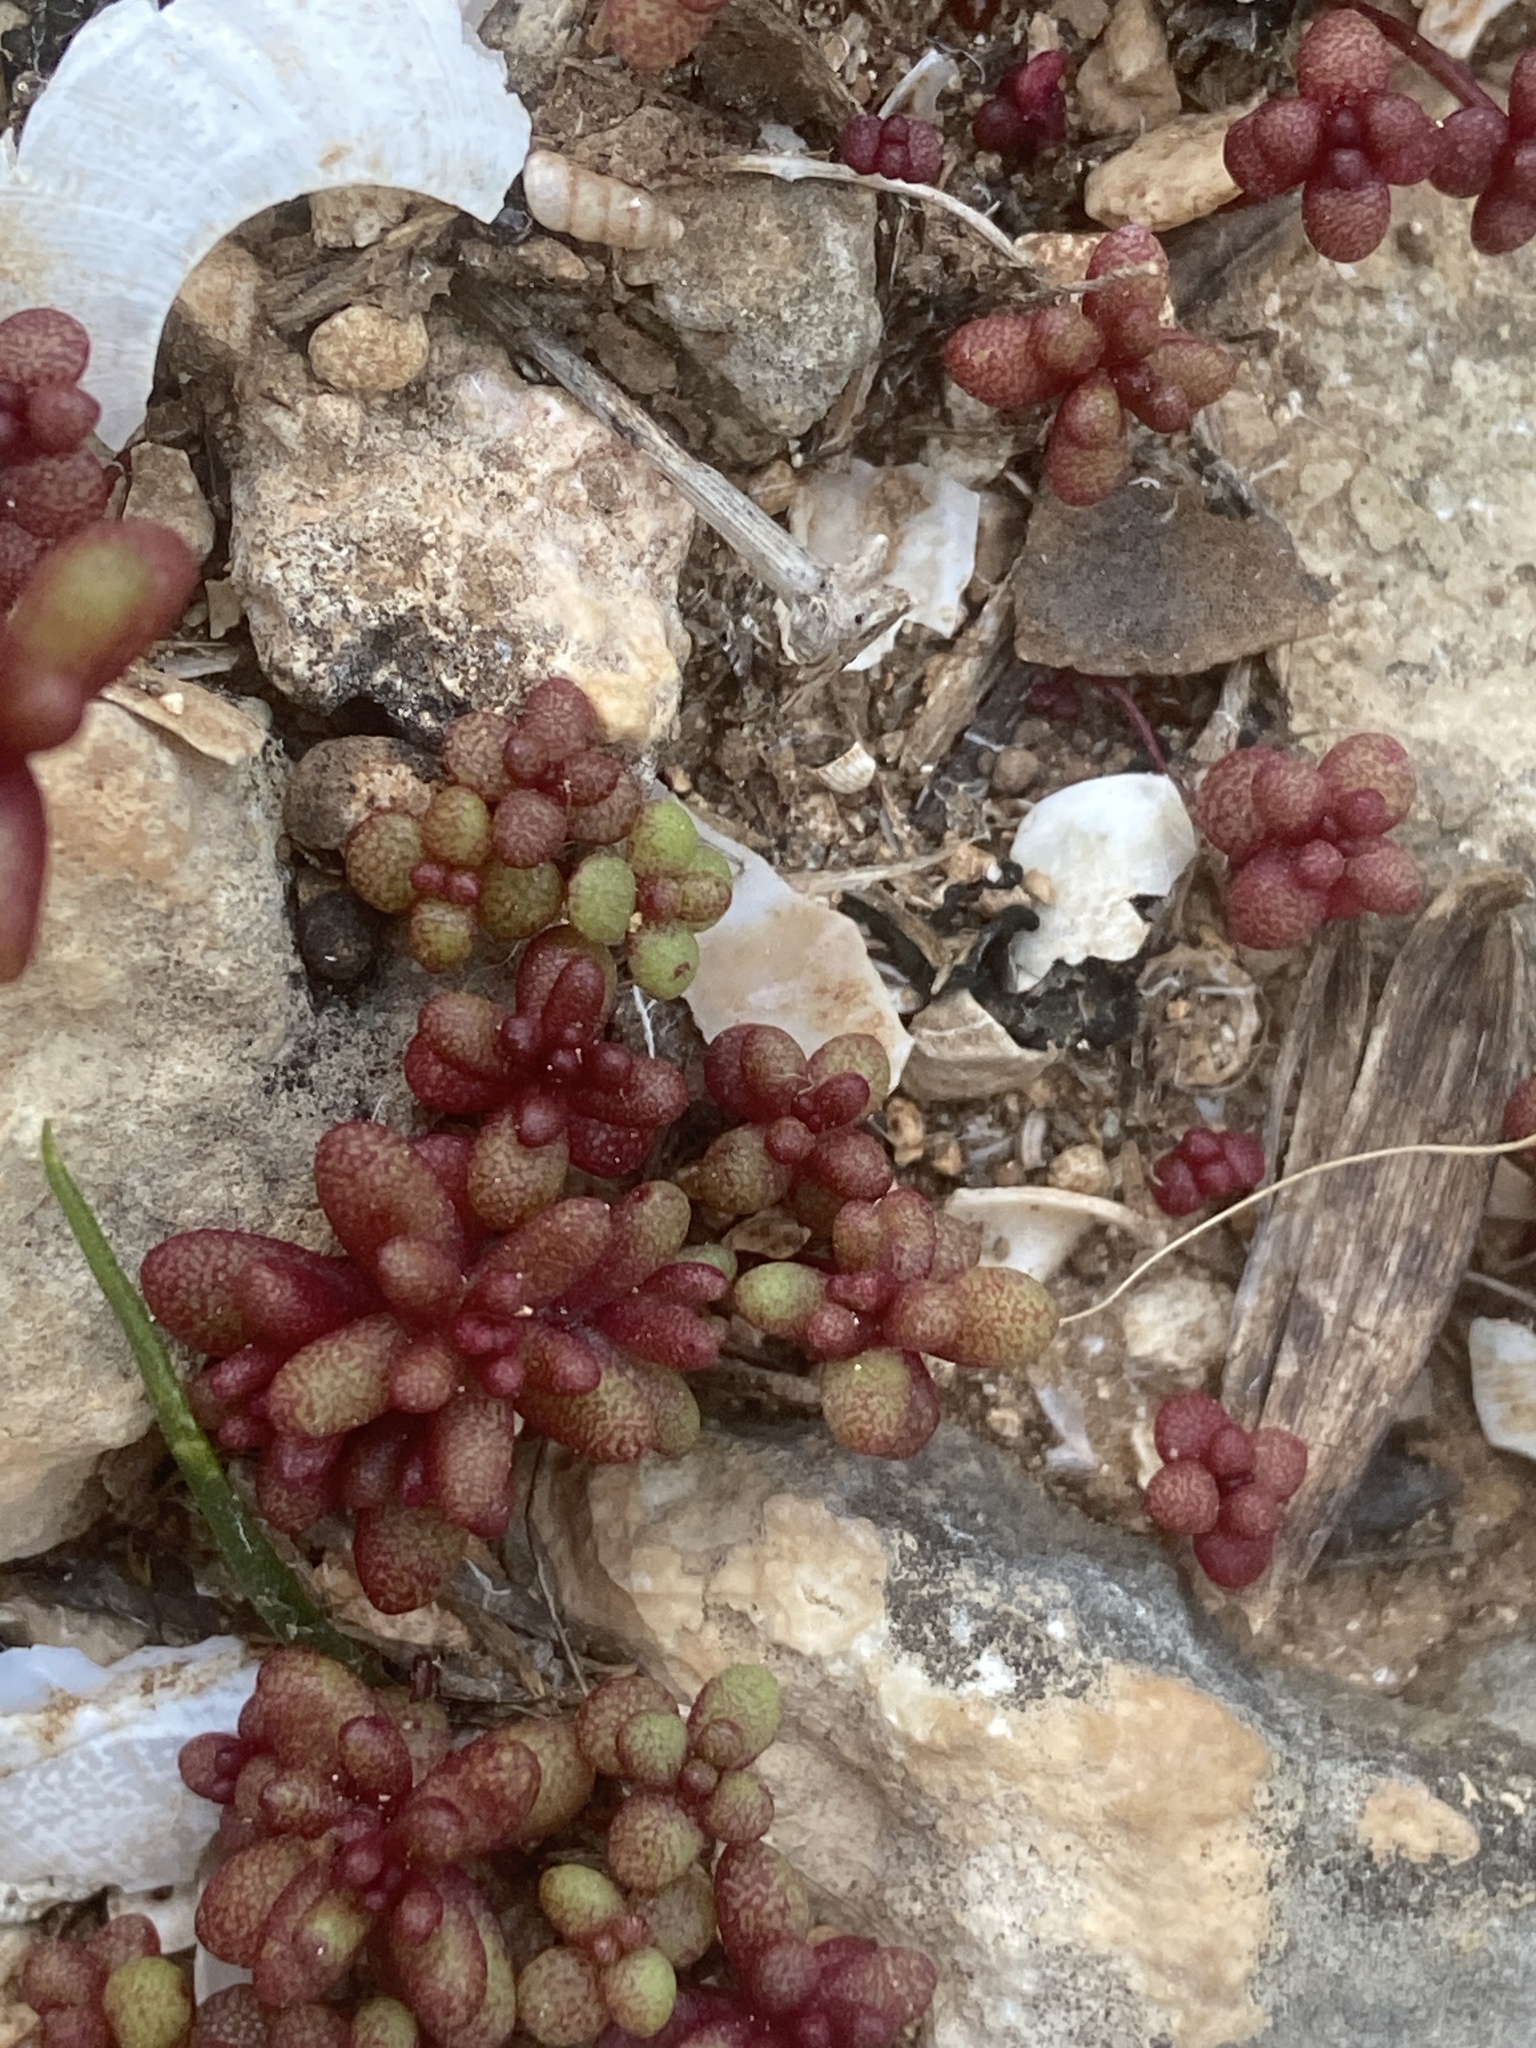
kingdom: Plantae
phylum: Tracheophyta
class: Magnoliopsida
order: Saxifragales
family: Crassulaceae
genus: Sedum
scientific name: Sedum caeruleum
